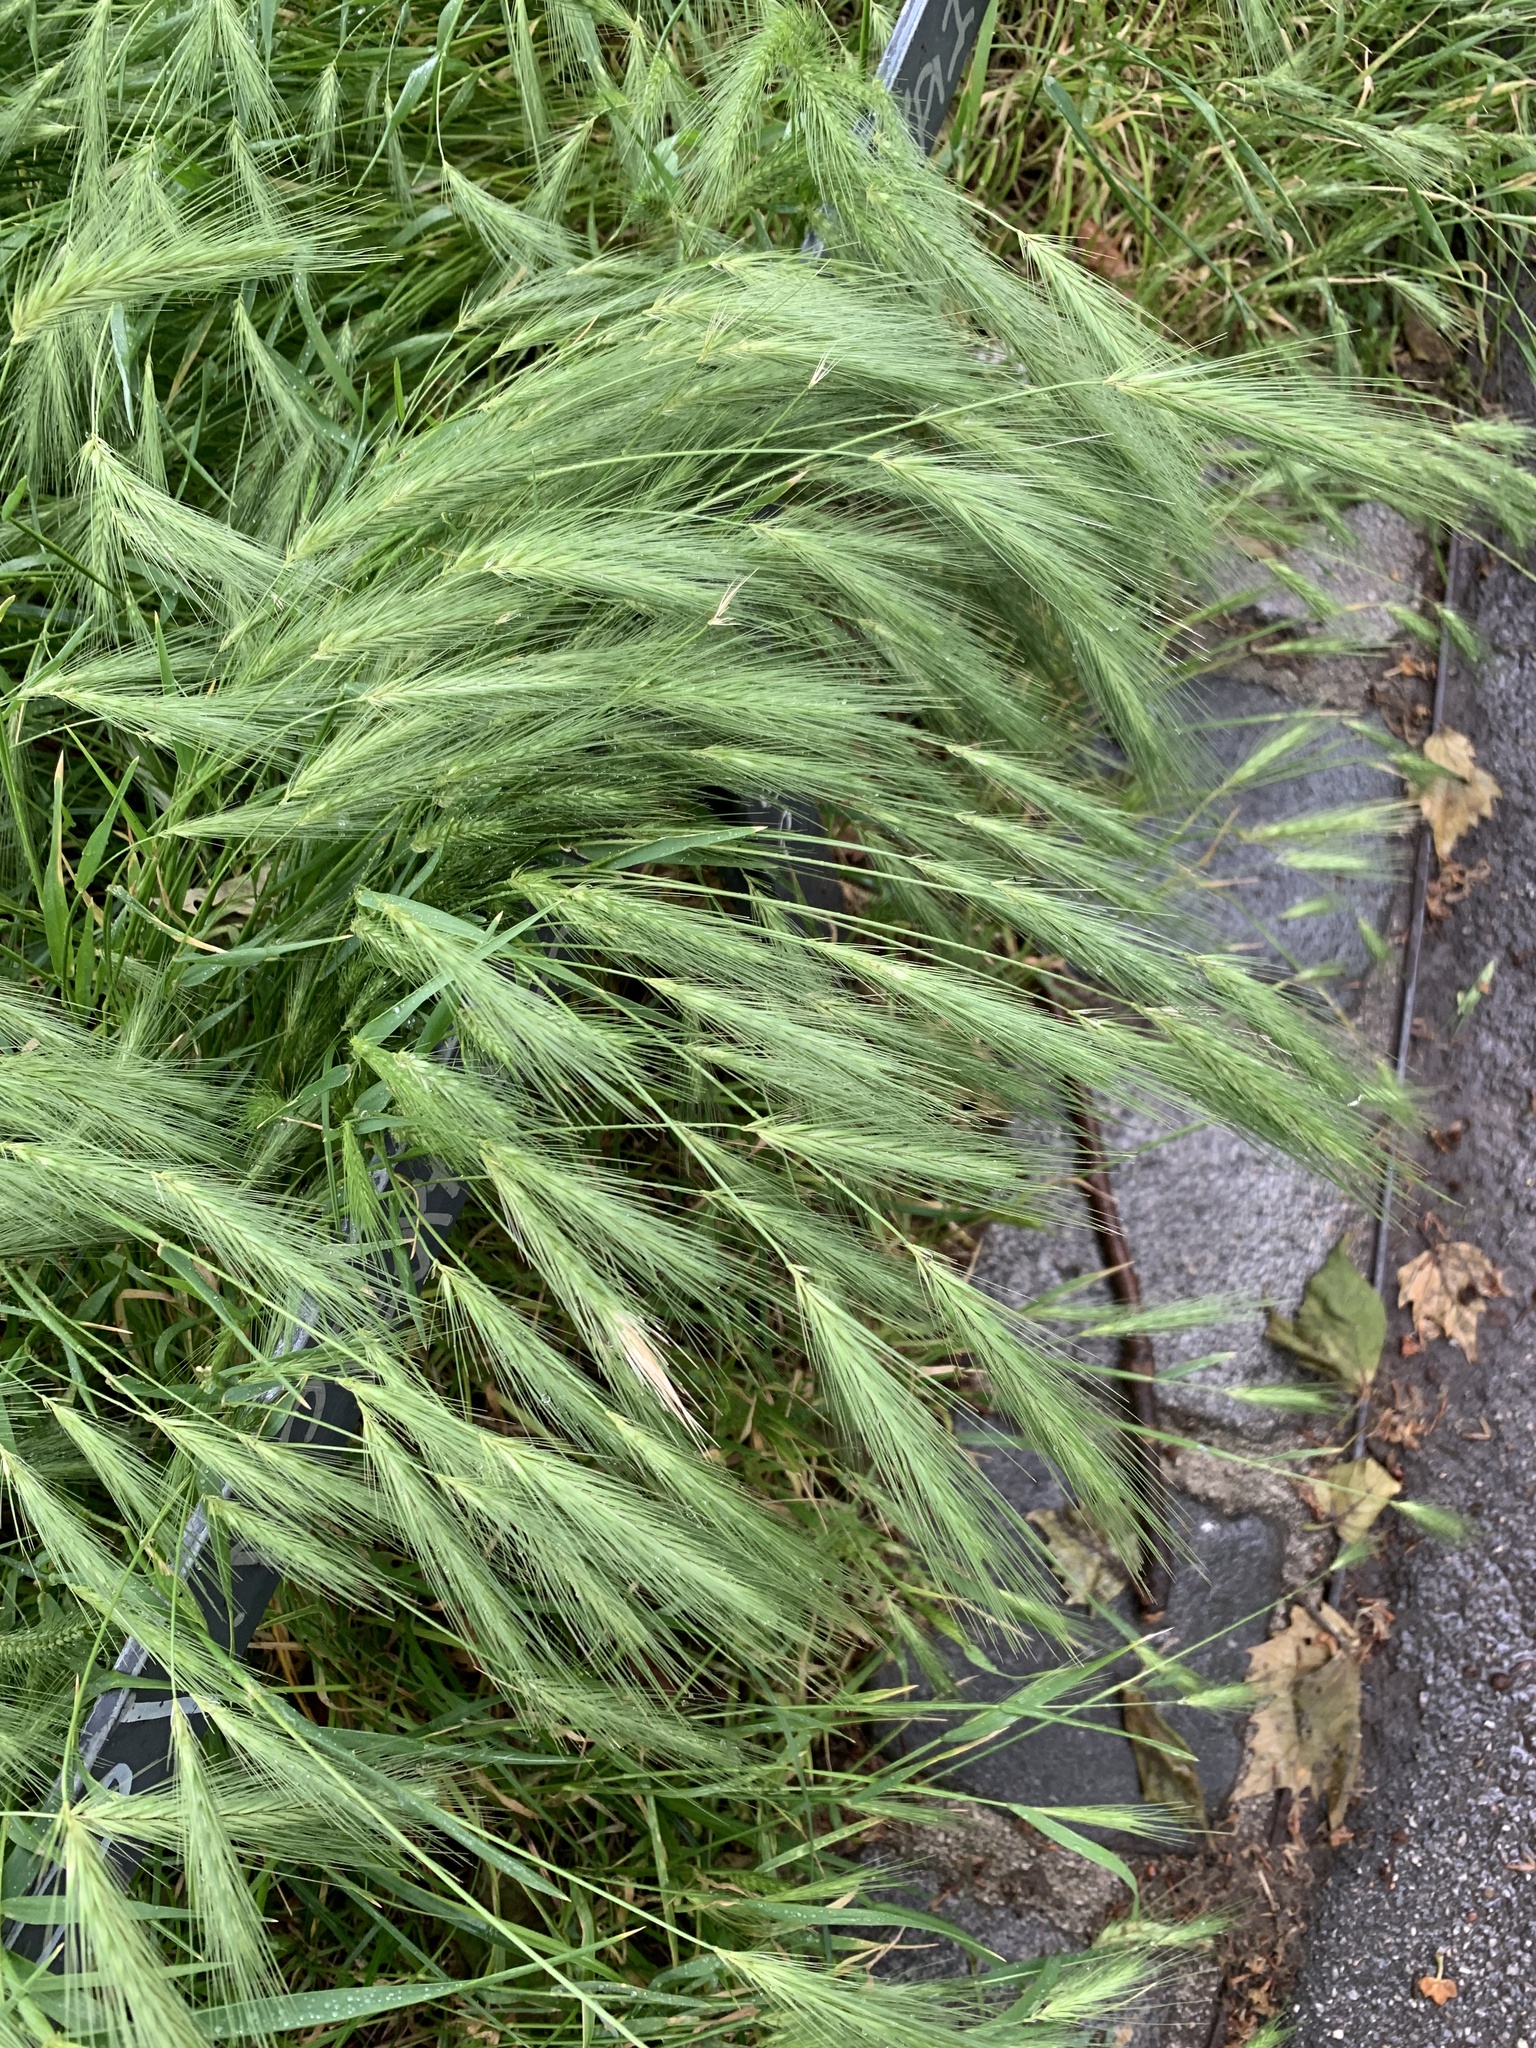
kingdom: Plantae
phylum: Tracheophyta
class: Liliopsida
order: Poales
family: Poaceae
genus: Hordeum
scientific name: Hordeum murinum
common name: Wall barley
